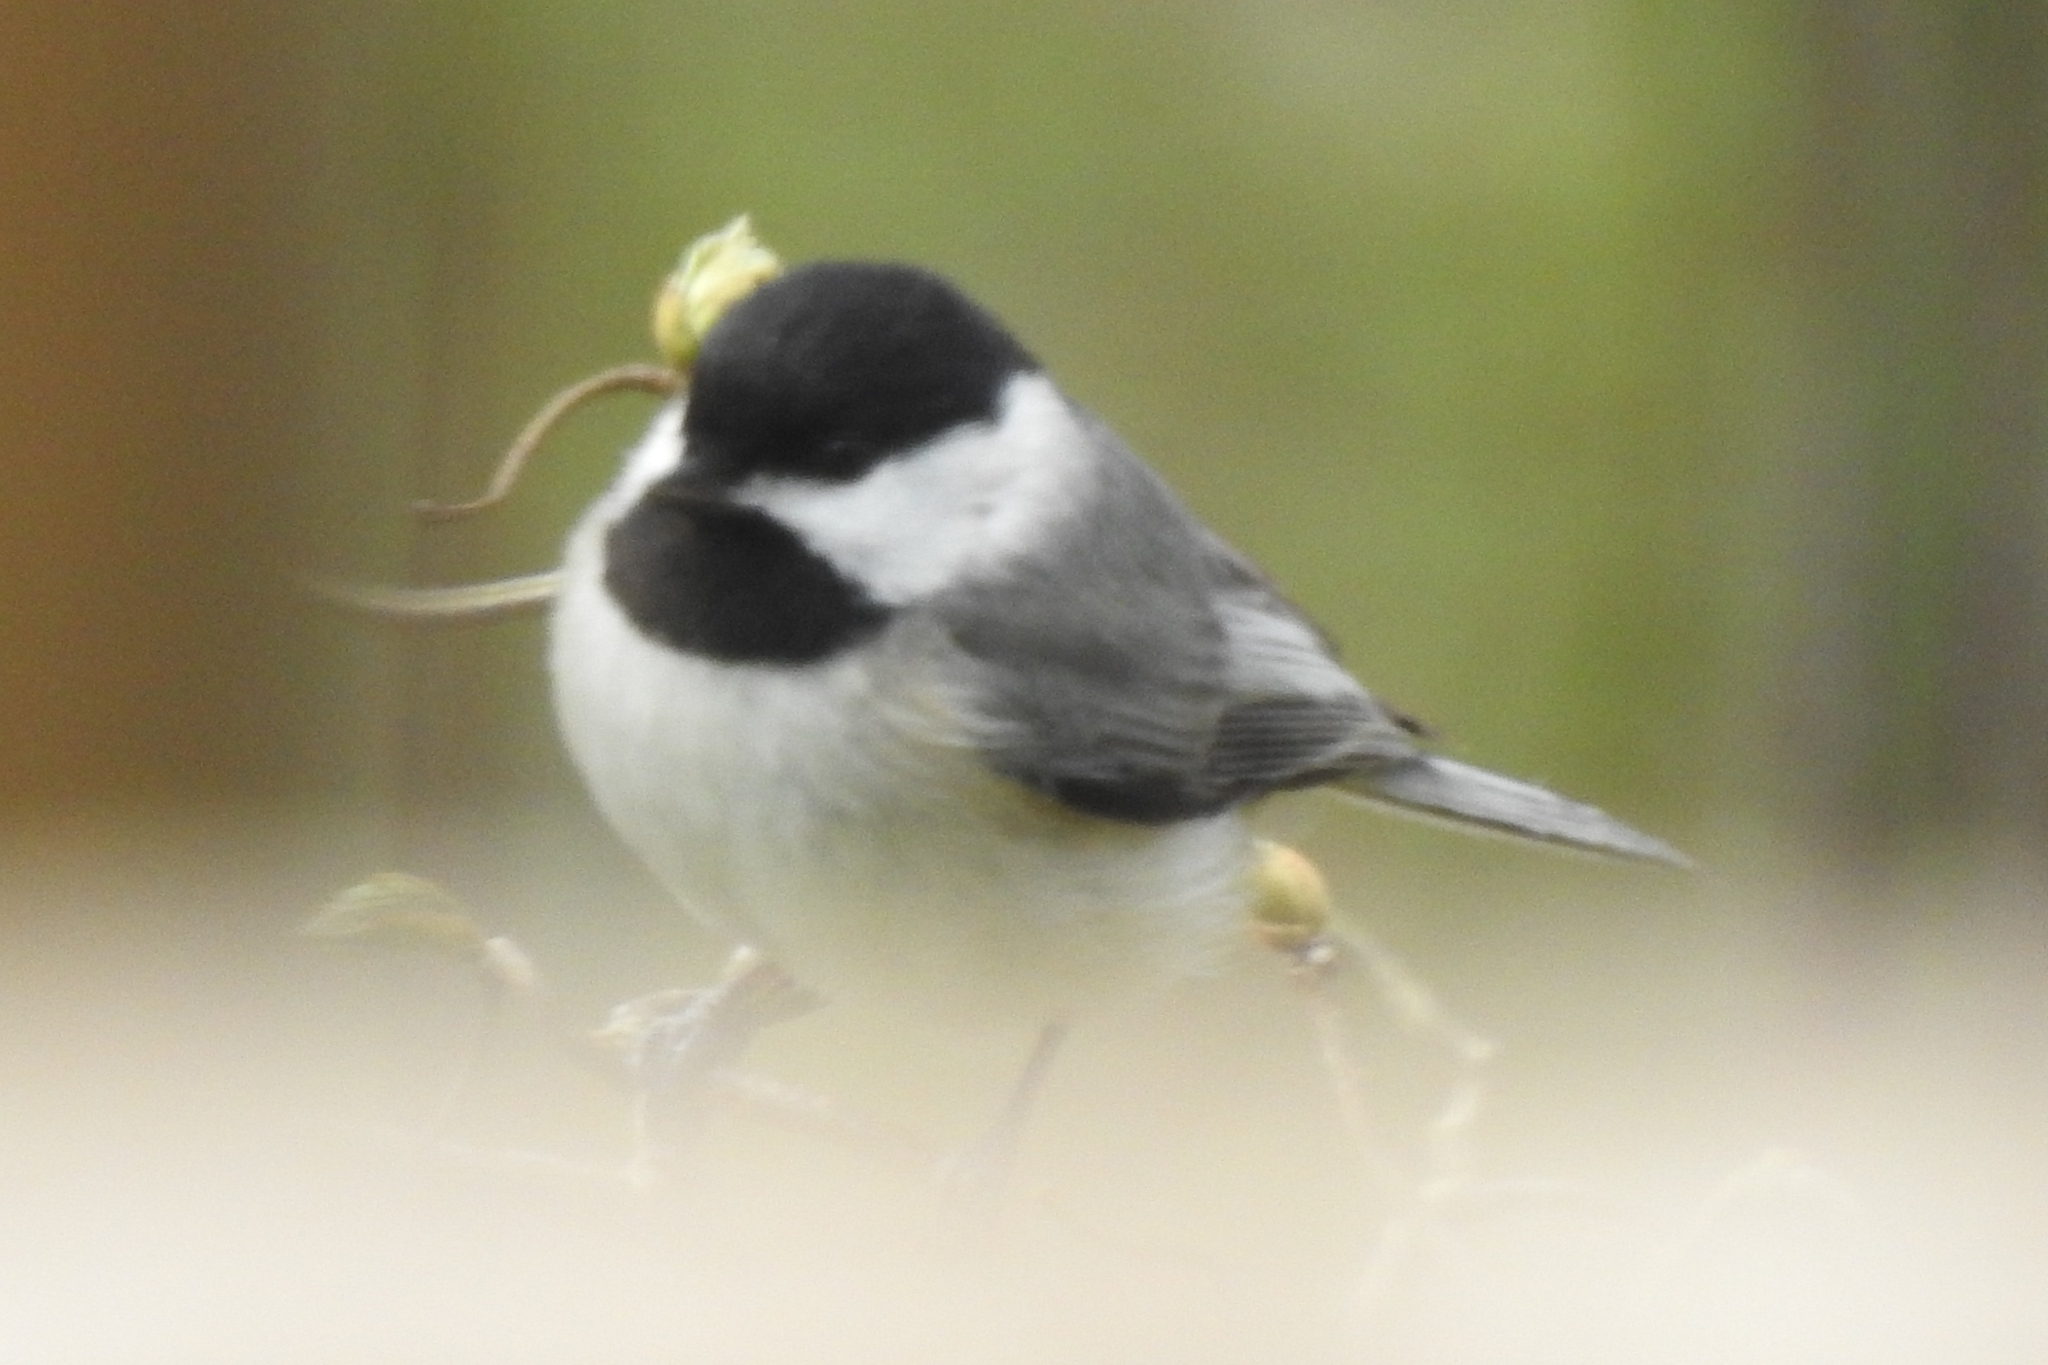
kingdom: Animalia
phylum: Chordata
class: Aves
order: Passeriformes
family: Paridae
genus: Poecile
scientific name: Poecile carolinensis
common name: Carolina chickadee
